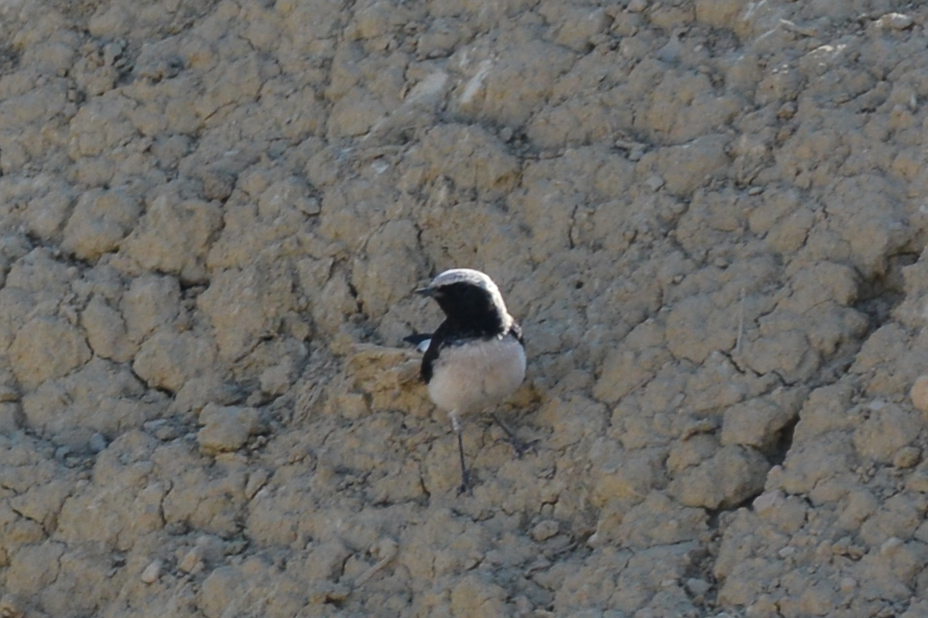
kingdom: Animalia
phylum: Chordata
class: Aves
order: Passeriformes
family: Muscicapidae
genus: Oenanthe
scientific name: Oenanthe finschii
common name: Finsch's wheatear
